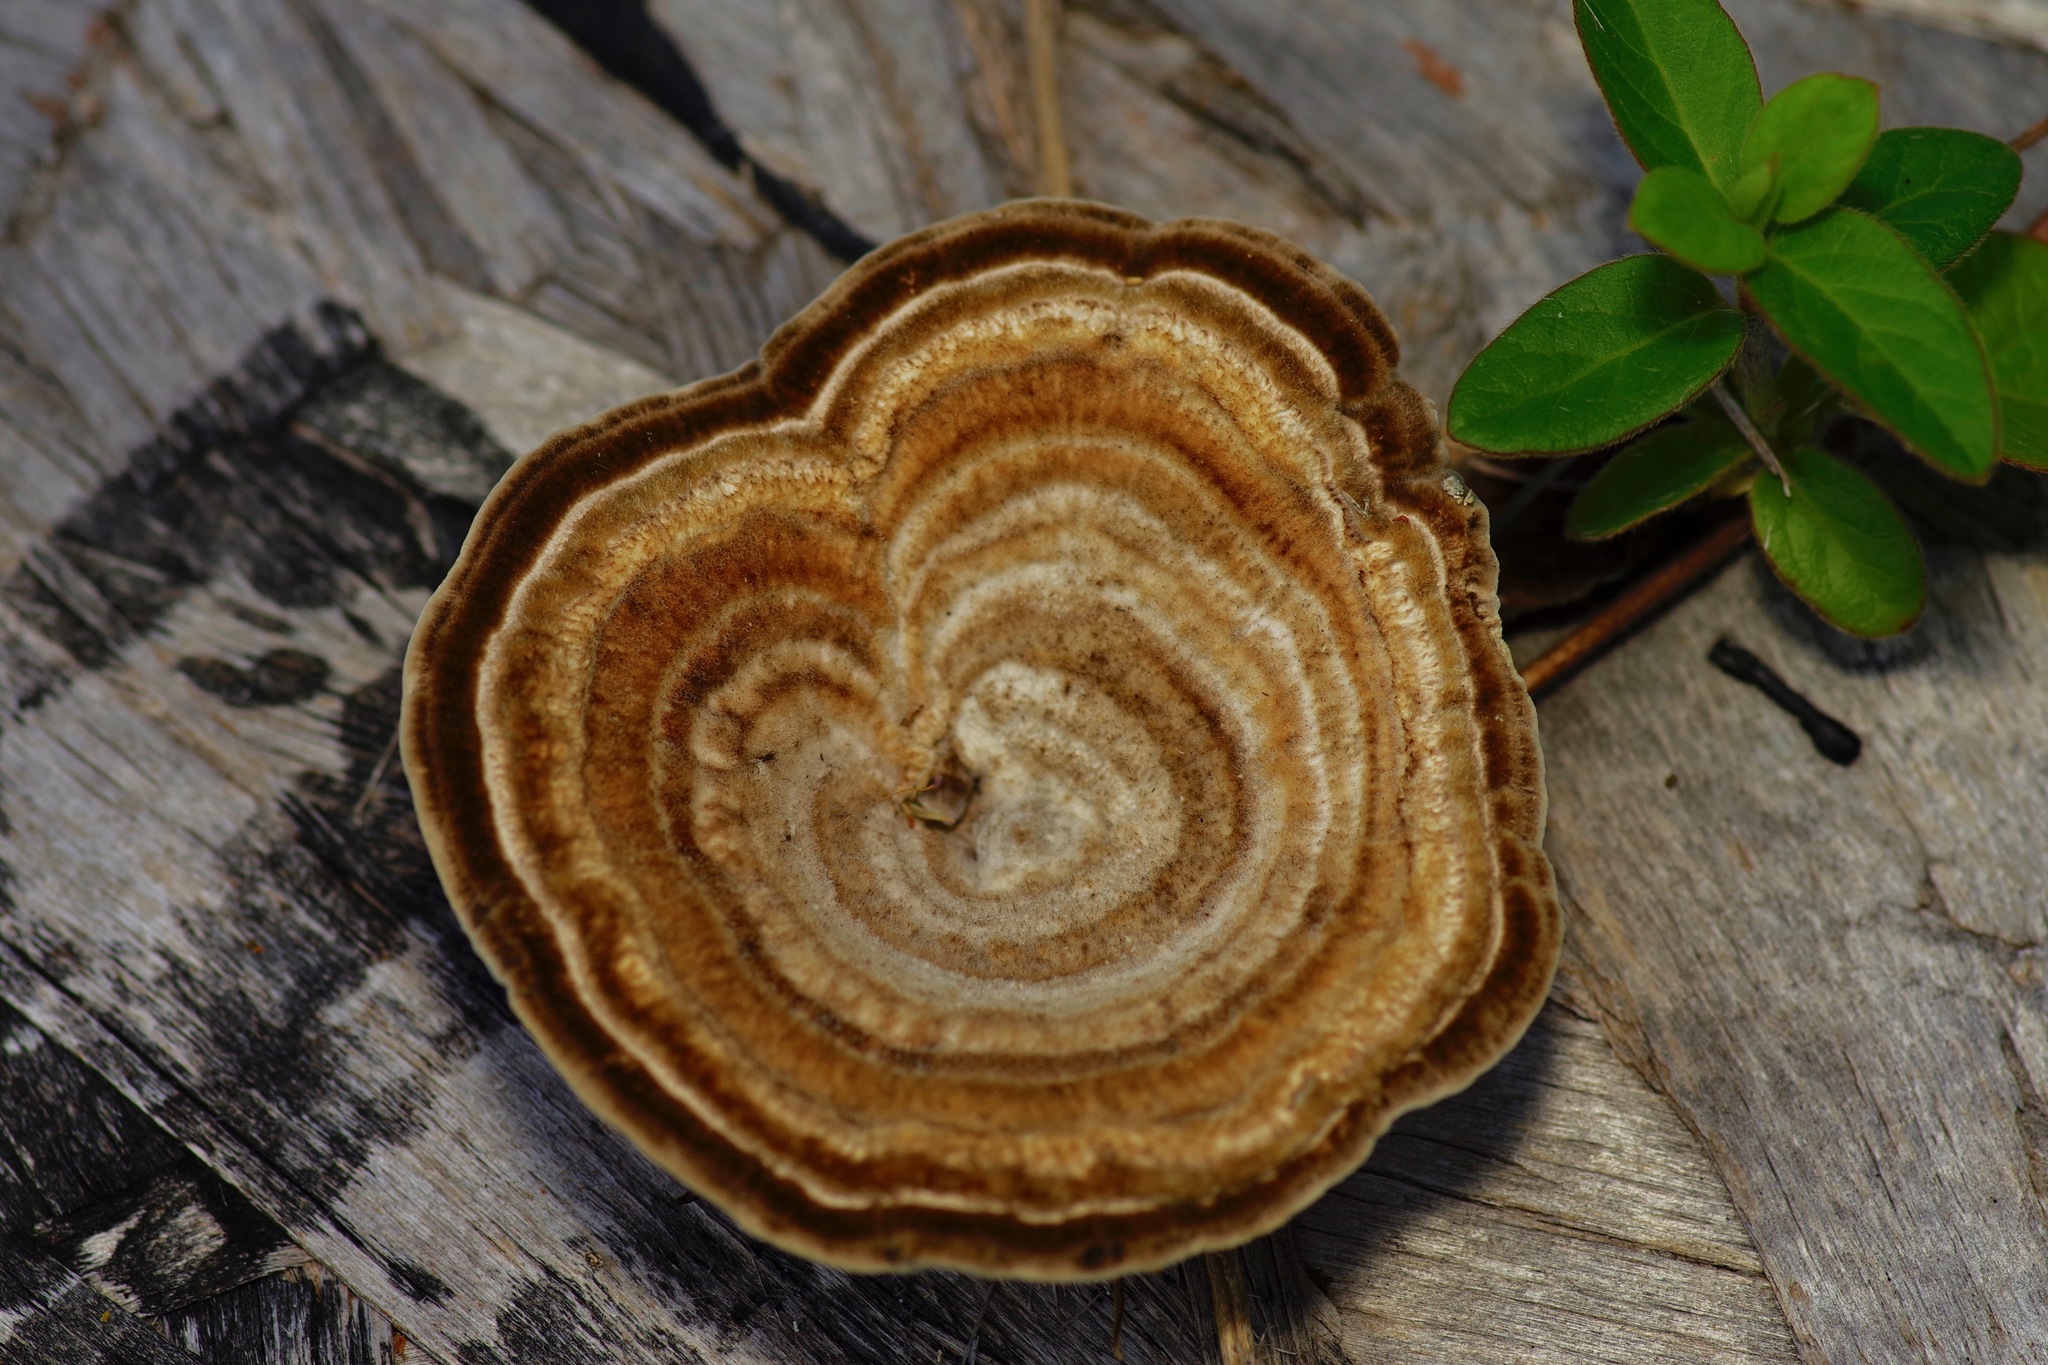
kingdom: Fungi
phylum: Basidiomycota
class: Agaricomycetes
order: Polyporales
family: Polyporaceae
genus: Microporellus
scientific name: Microporellus dealbatus
